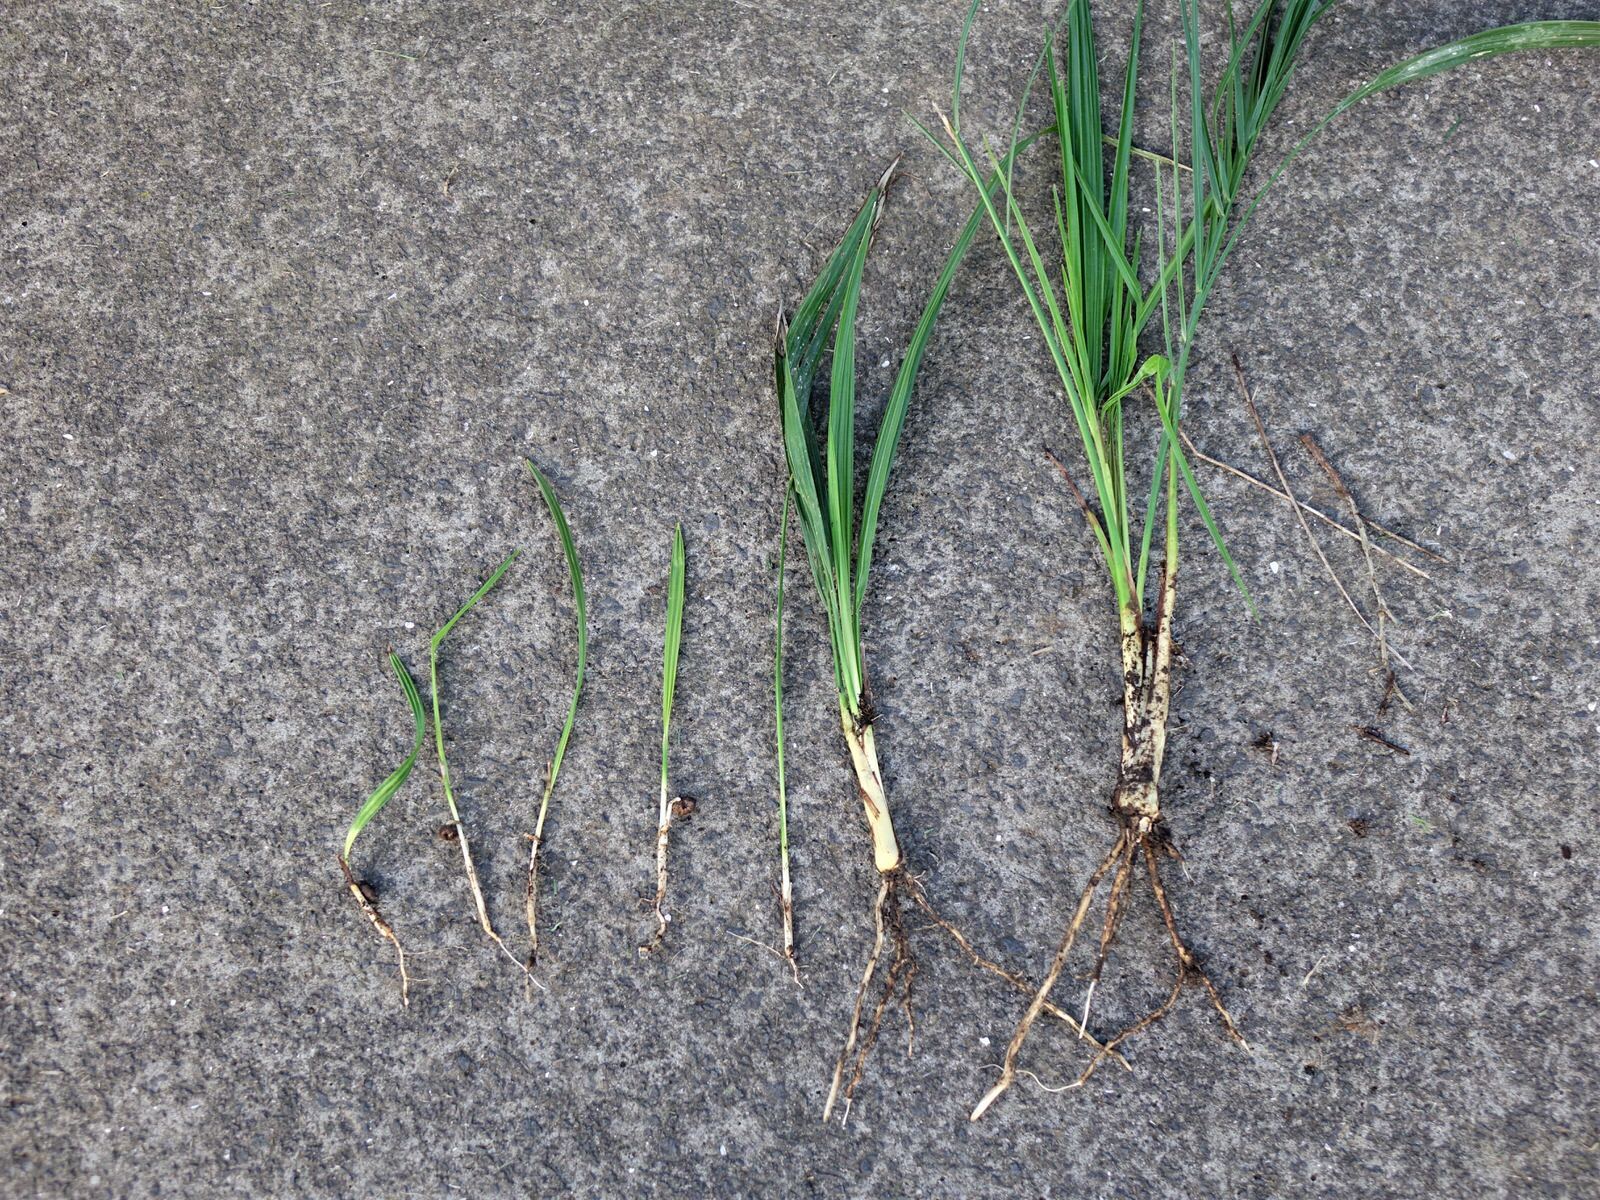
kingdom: Plantae
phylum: Tracheophyta
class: Liliopsida
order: Arecales
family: Arecaceae
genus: Phoenix
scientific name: Phoenix canariensis
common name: Canary island date palm
